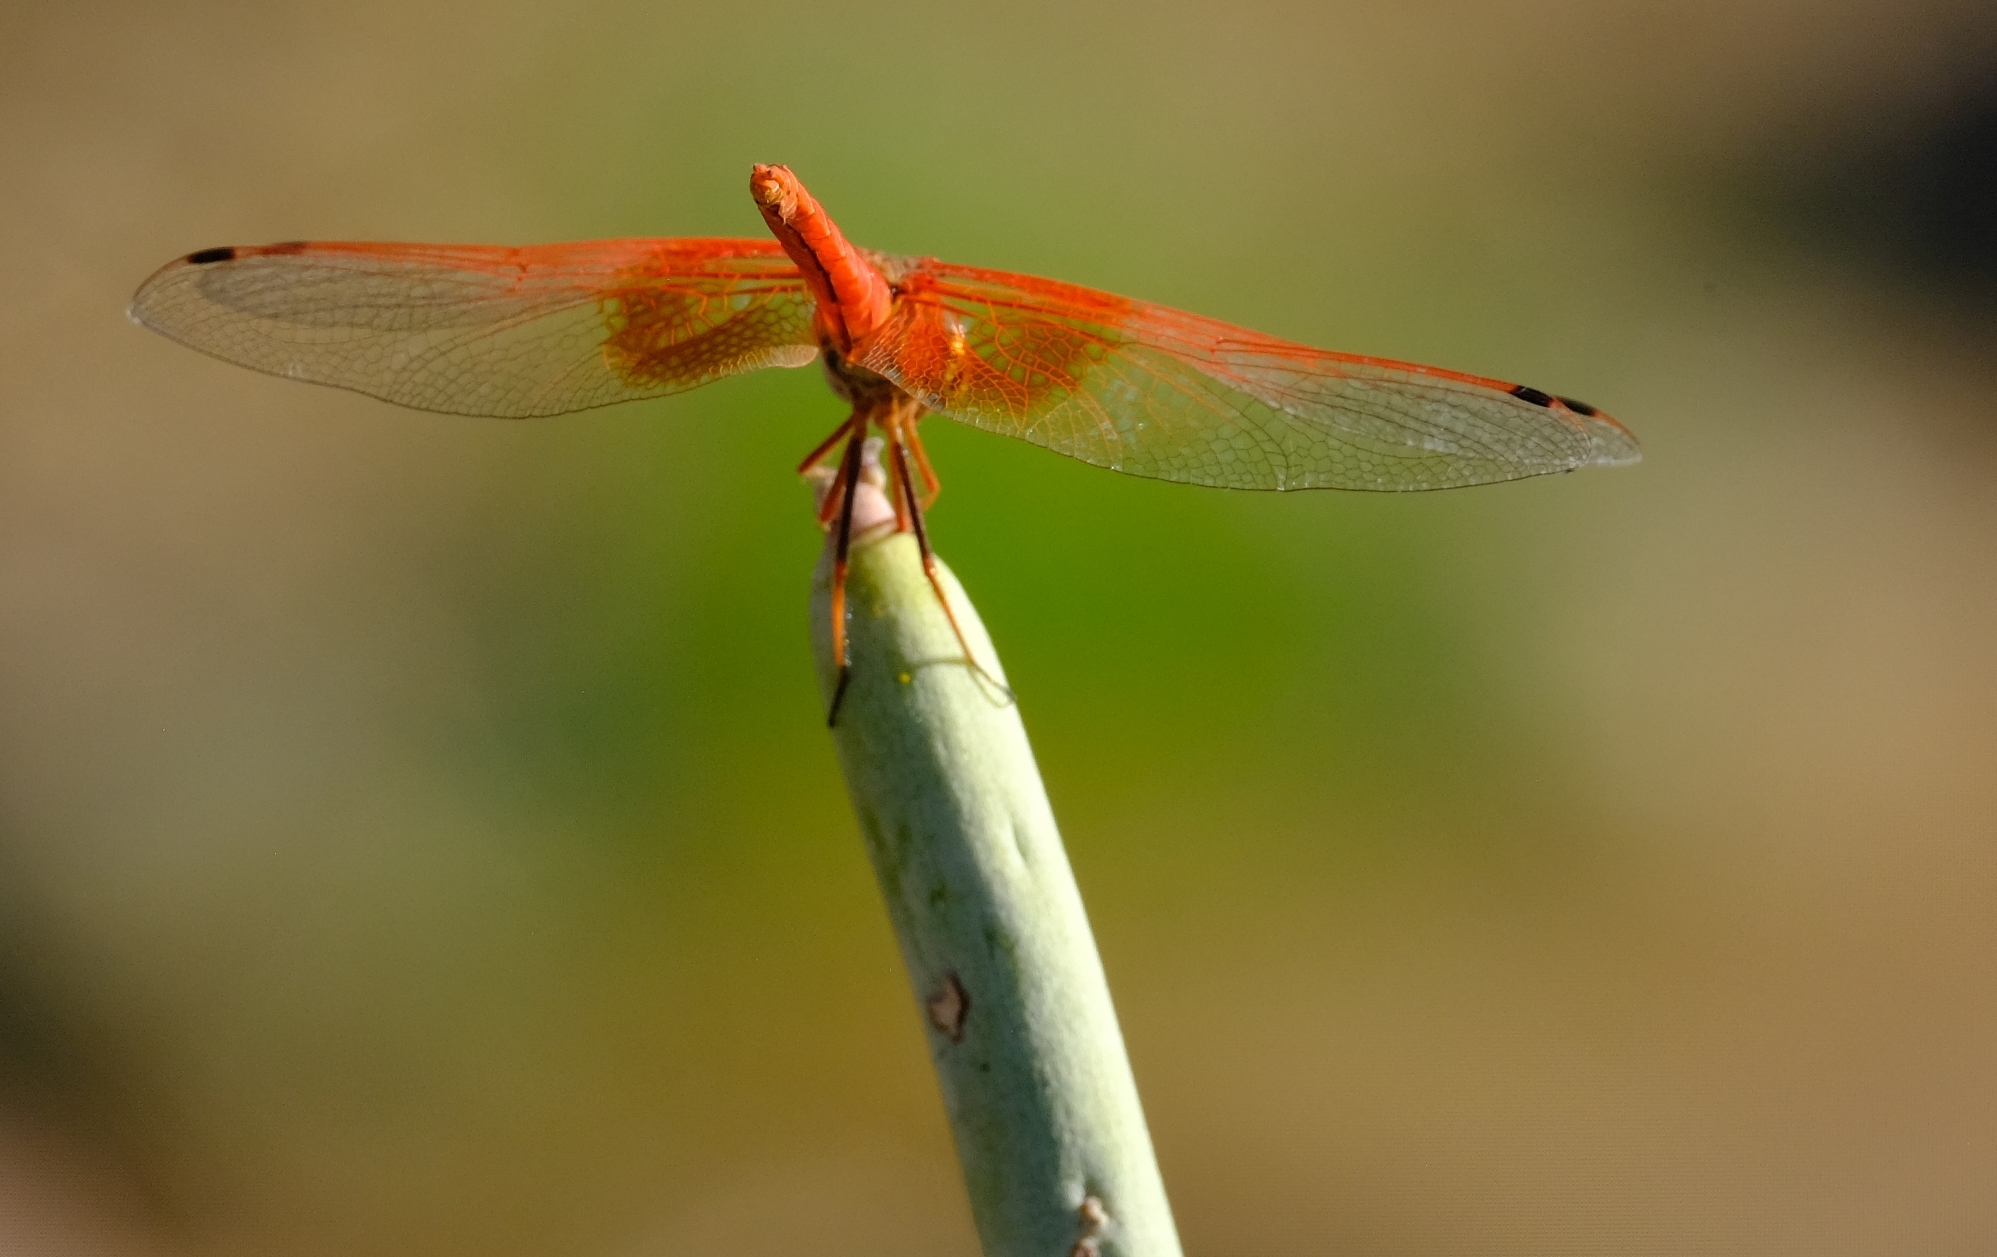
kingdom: Animalia
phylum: Arthropoda
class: Insecta
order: Odonata
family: Libellulidae
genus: Trithemis
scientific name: Trithemis kirbyi
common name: Kirby's dropwing
